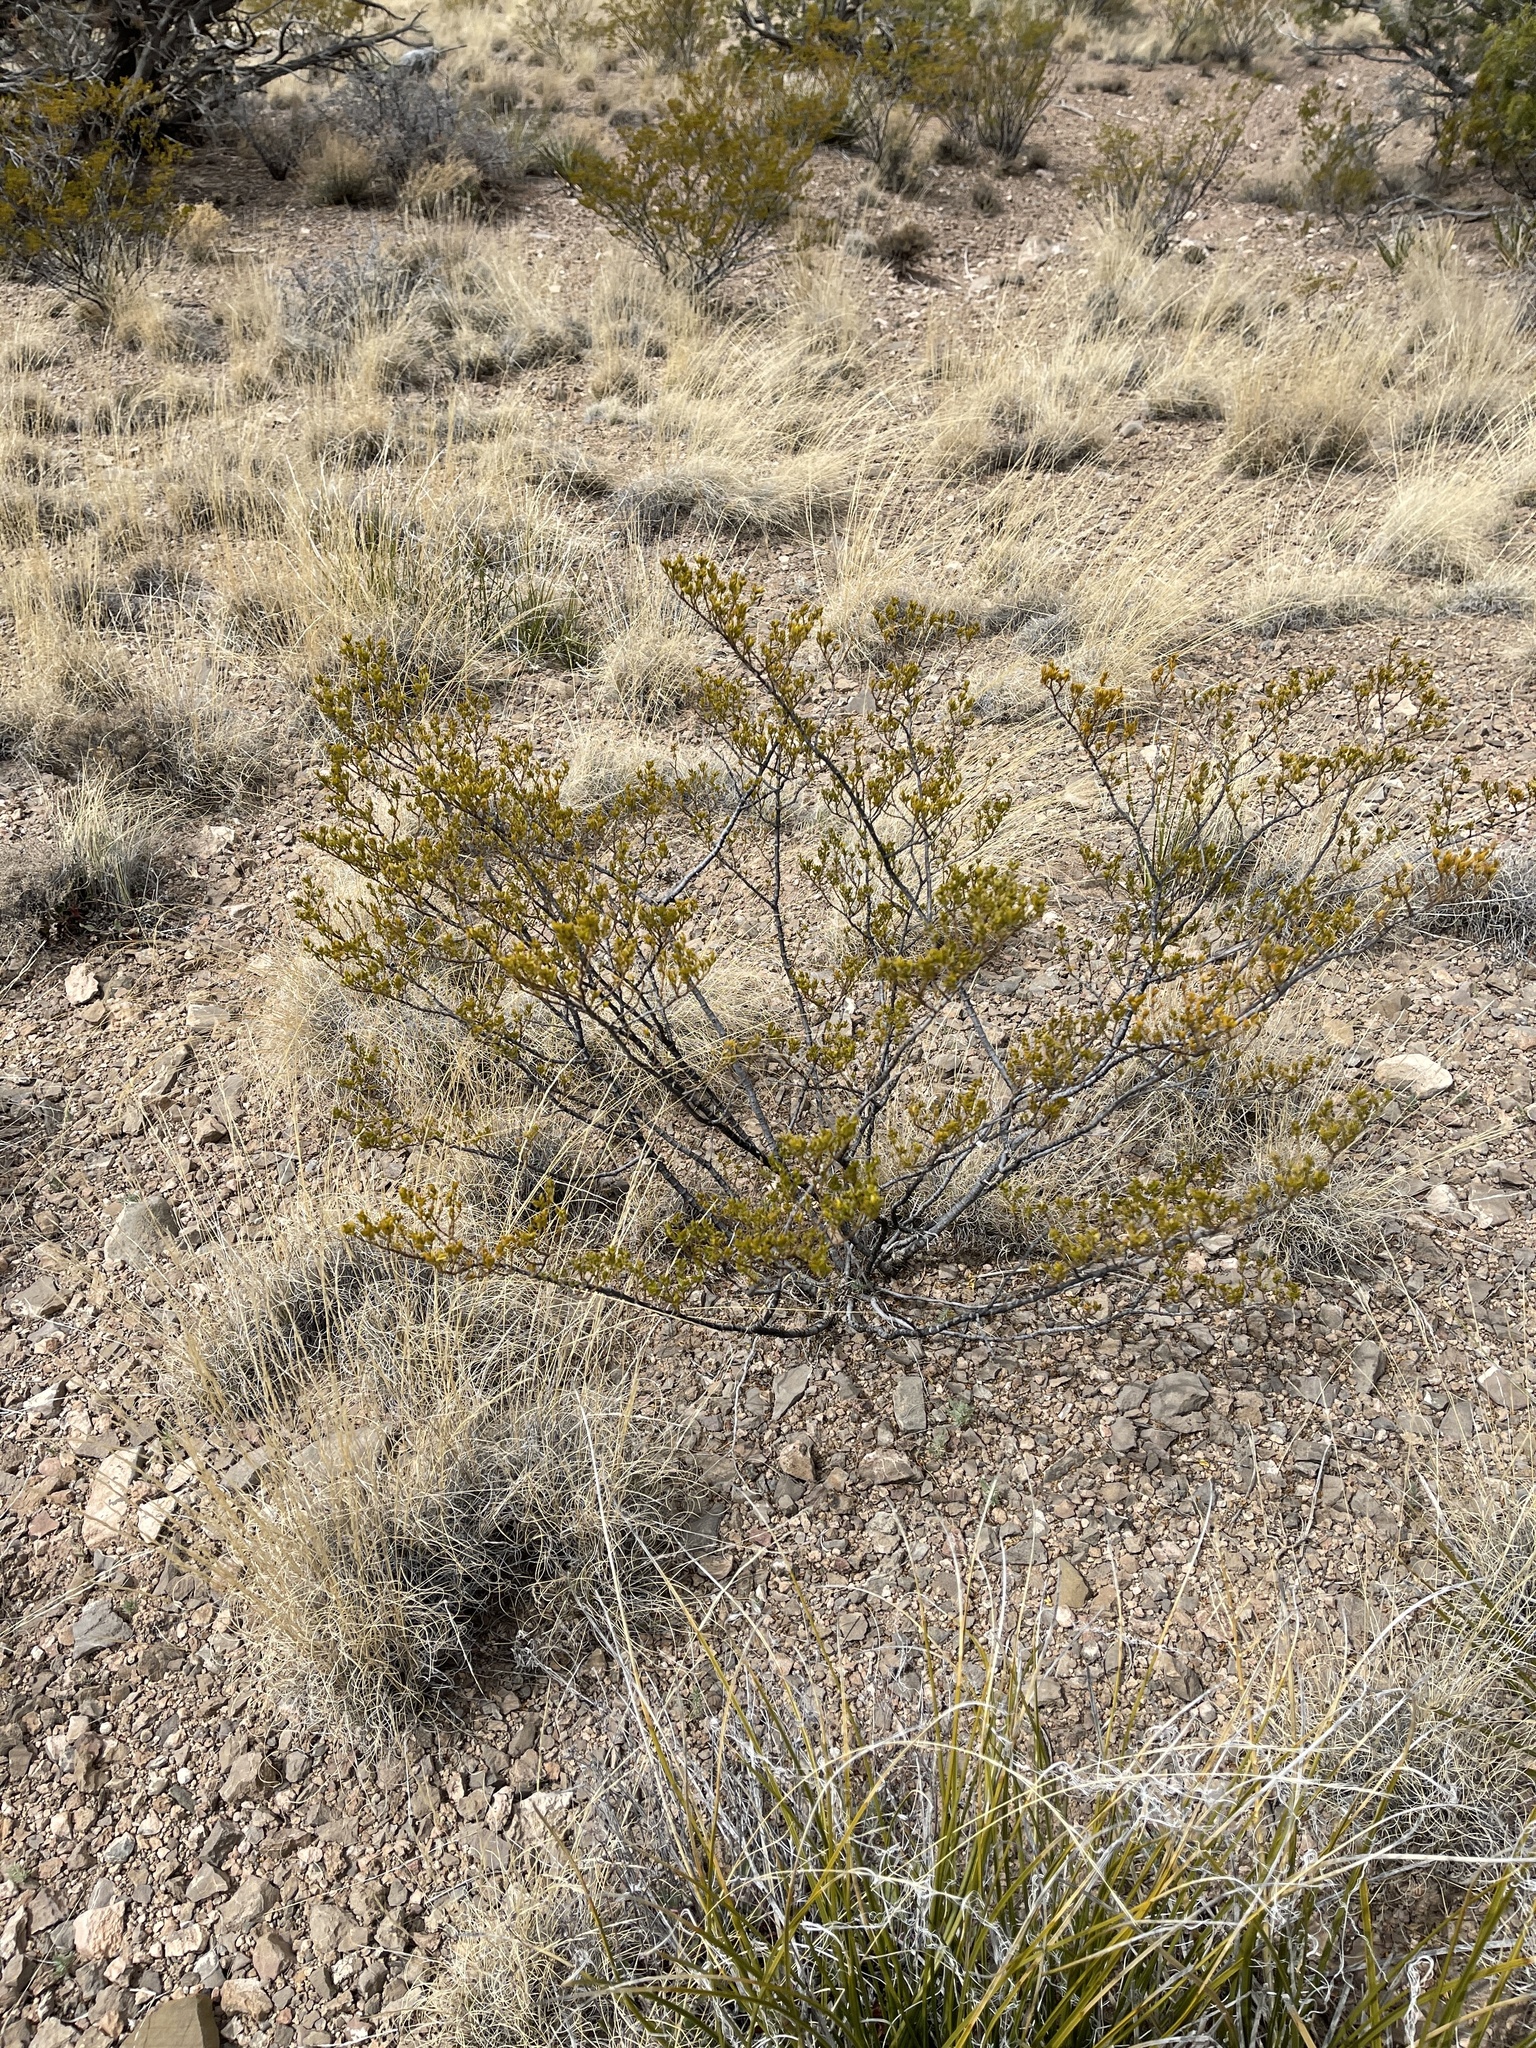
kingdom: Plantae
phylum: Tracheophyta
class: Magnoliopsida
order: Zygophyllales
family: Zygophyllaceae
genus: Larrea
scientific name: Larrea tridentata
